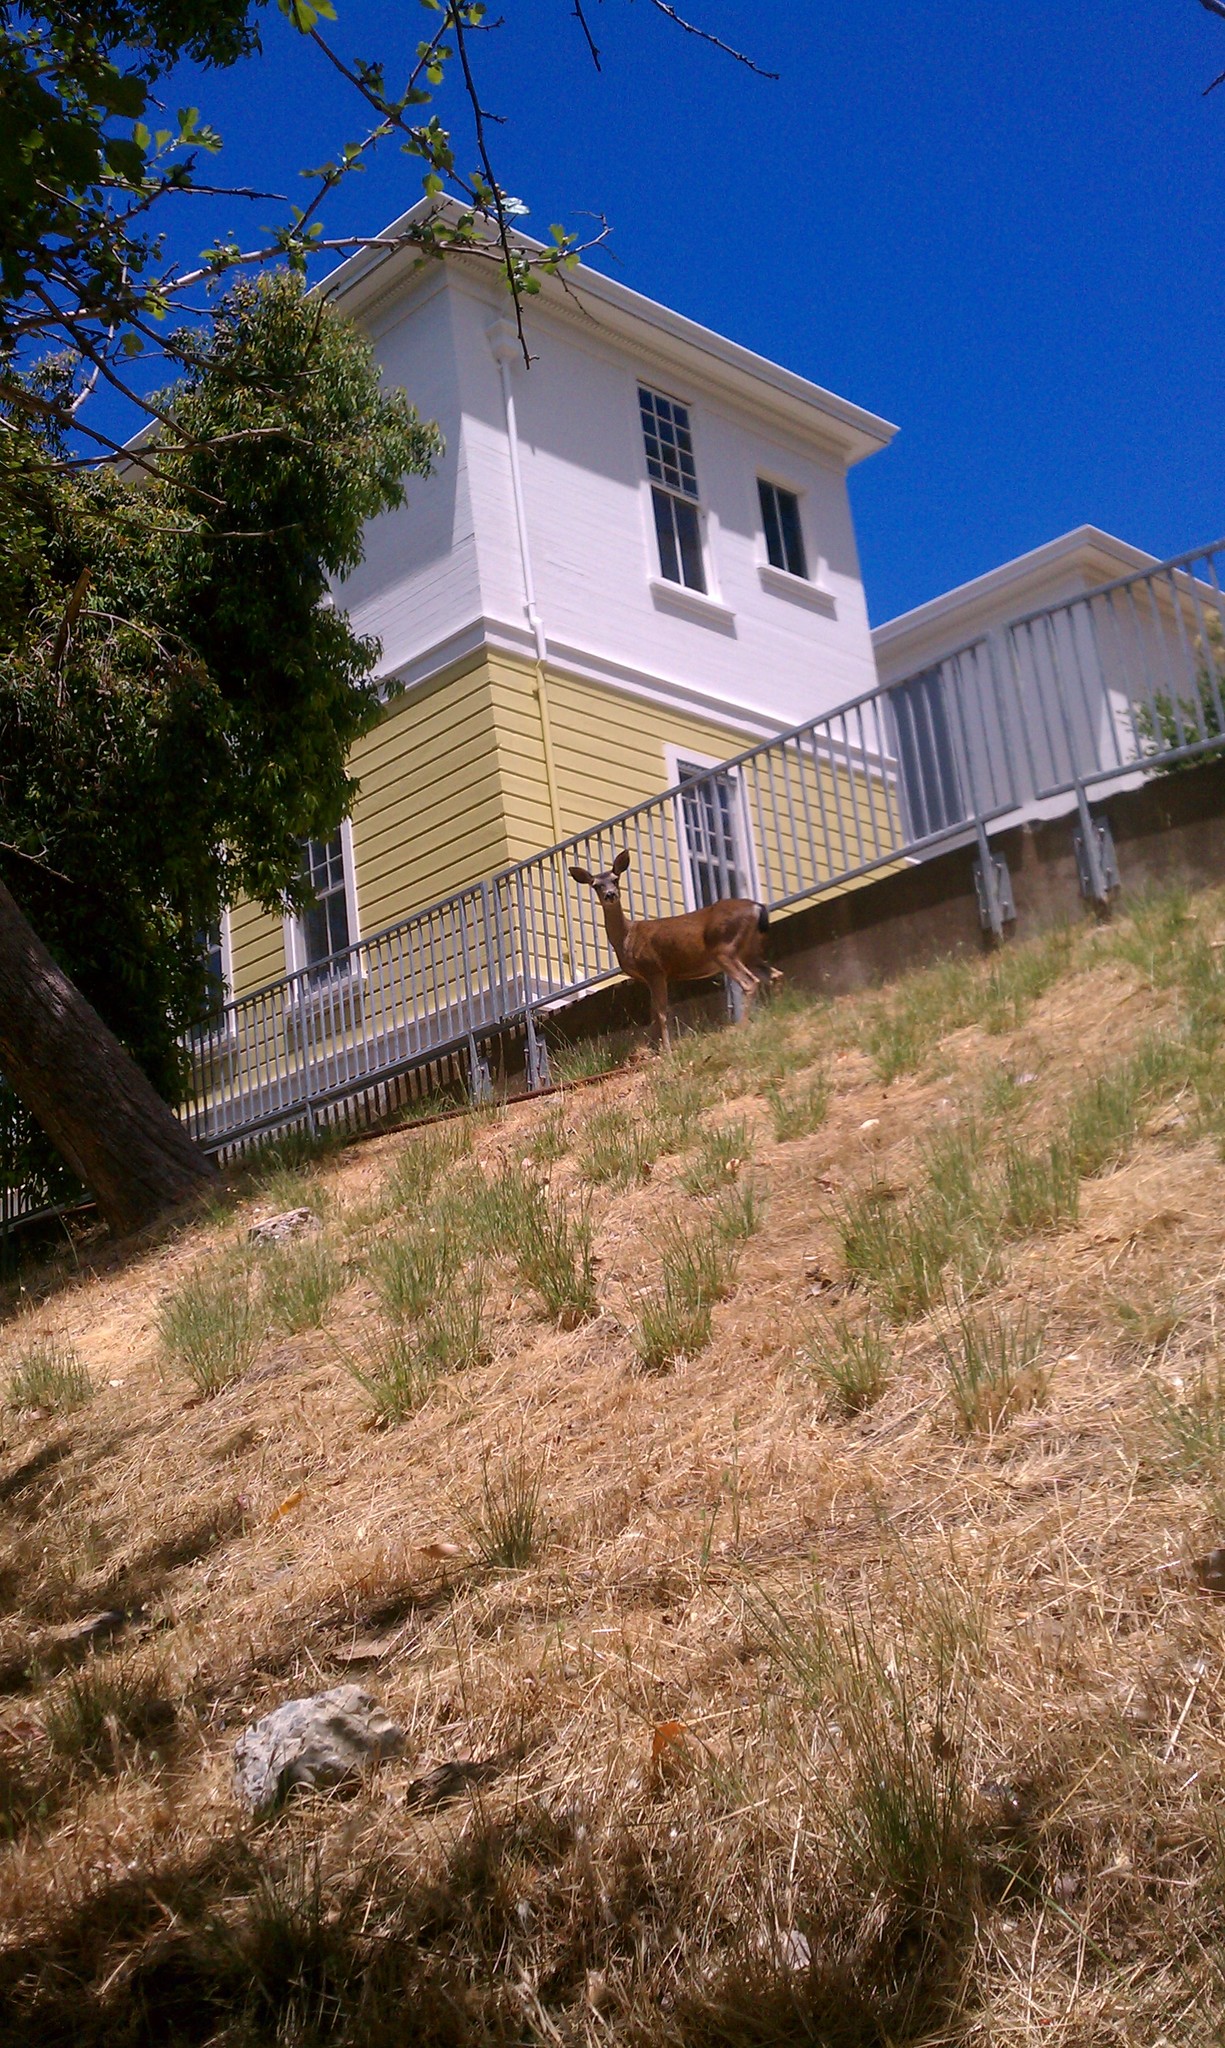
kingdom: Animalia
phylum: Chordata
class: Mammalia
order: Artiodactyla
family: Cervidae
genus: Odocoileus
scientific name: Odocoileus hemionus
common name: Mule deer
